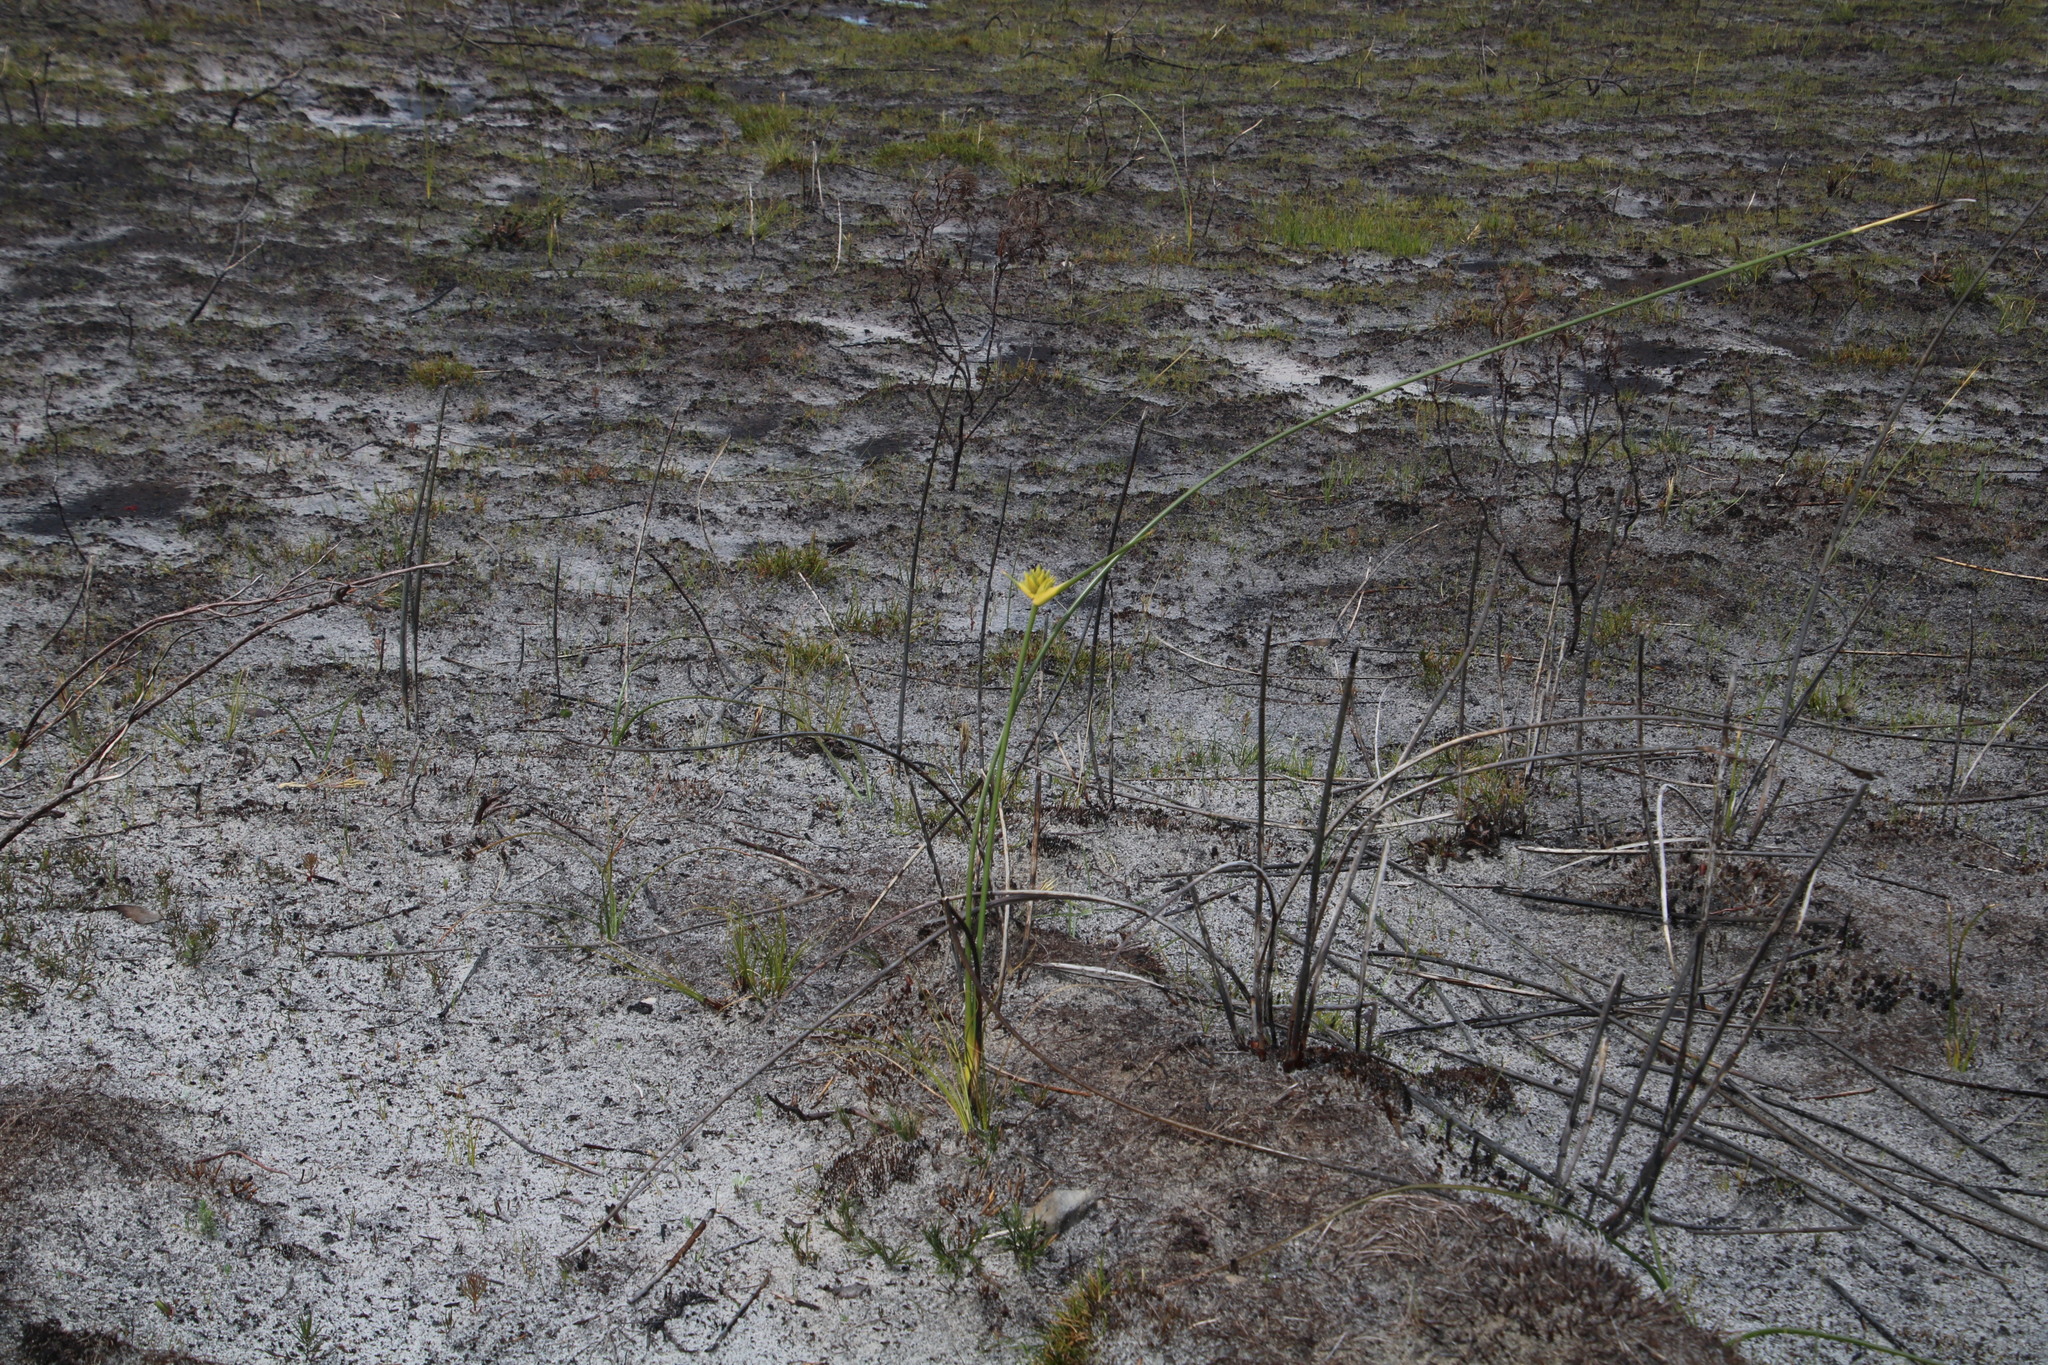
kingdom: Plantae
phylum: Tracheophyta
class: Liliopsida
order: Asparagales
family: Iridaceae
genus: Bobartia
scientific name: Bobartia indica
